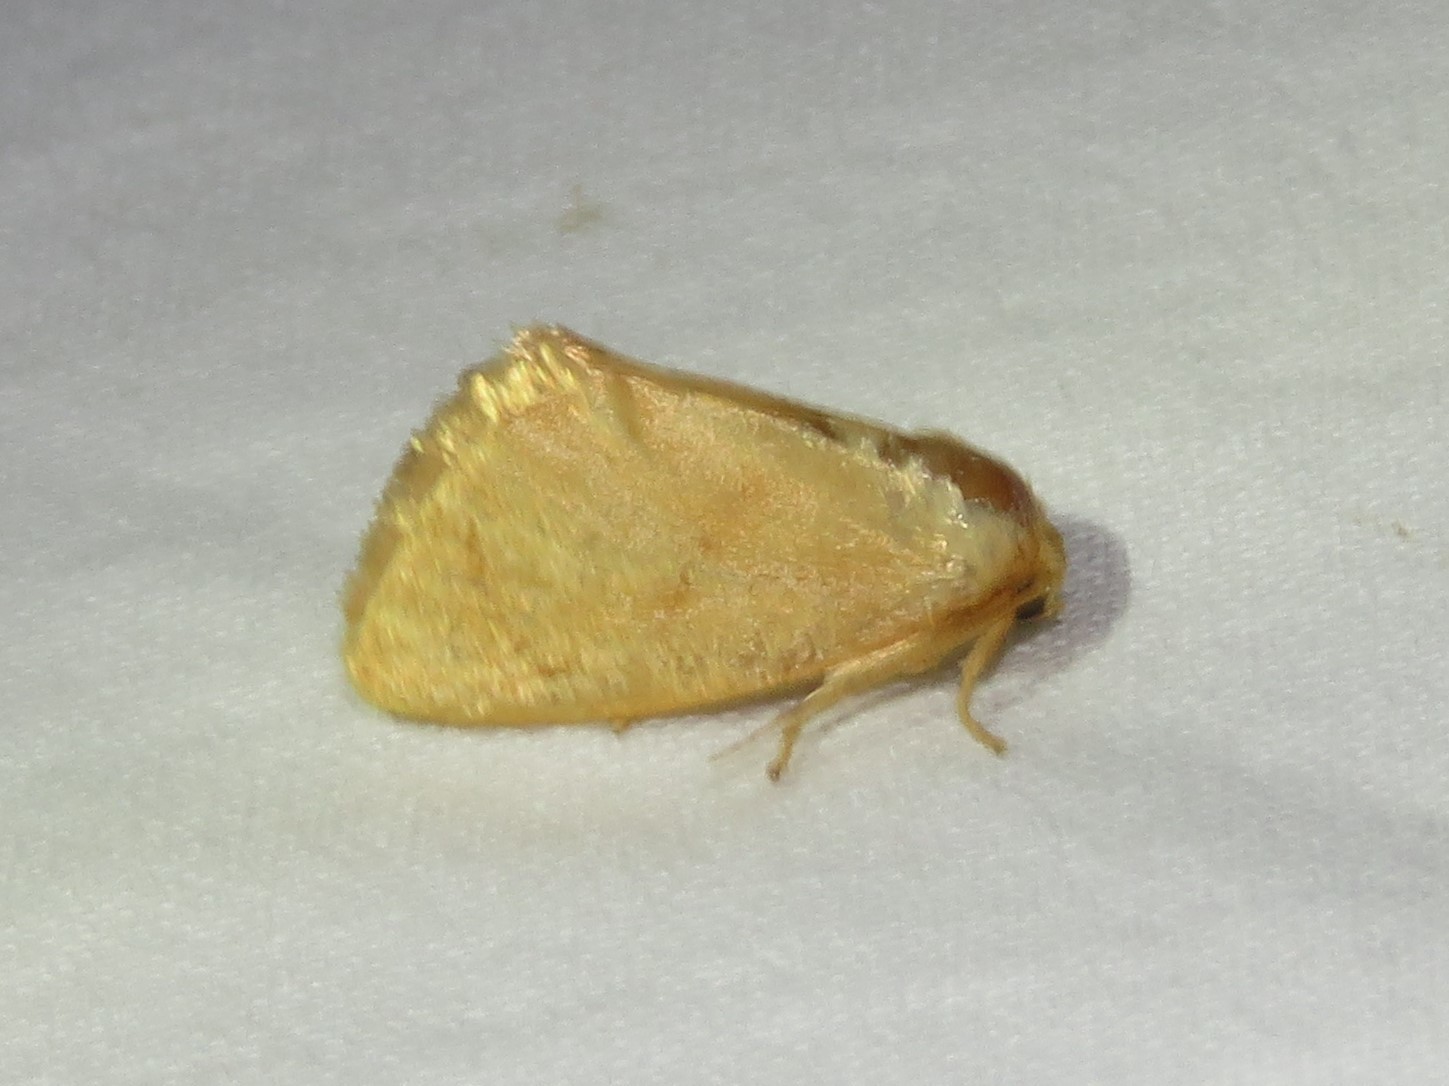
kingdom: Animalia
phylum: Arthropoda
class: Insecta
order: Lepidoptera
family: Limacodidae
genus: Tortricidia
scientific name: Tortricidia pallida
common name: Red-crossed button slug moth
